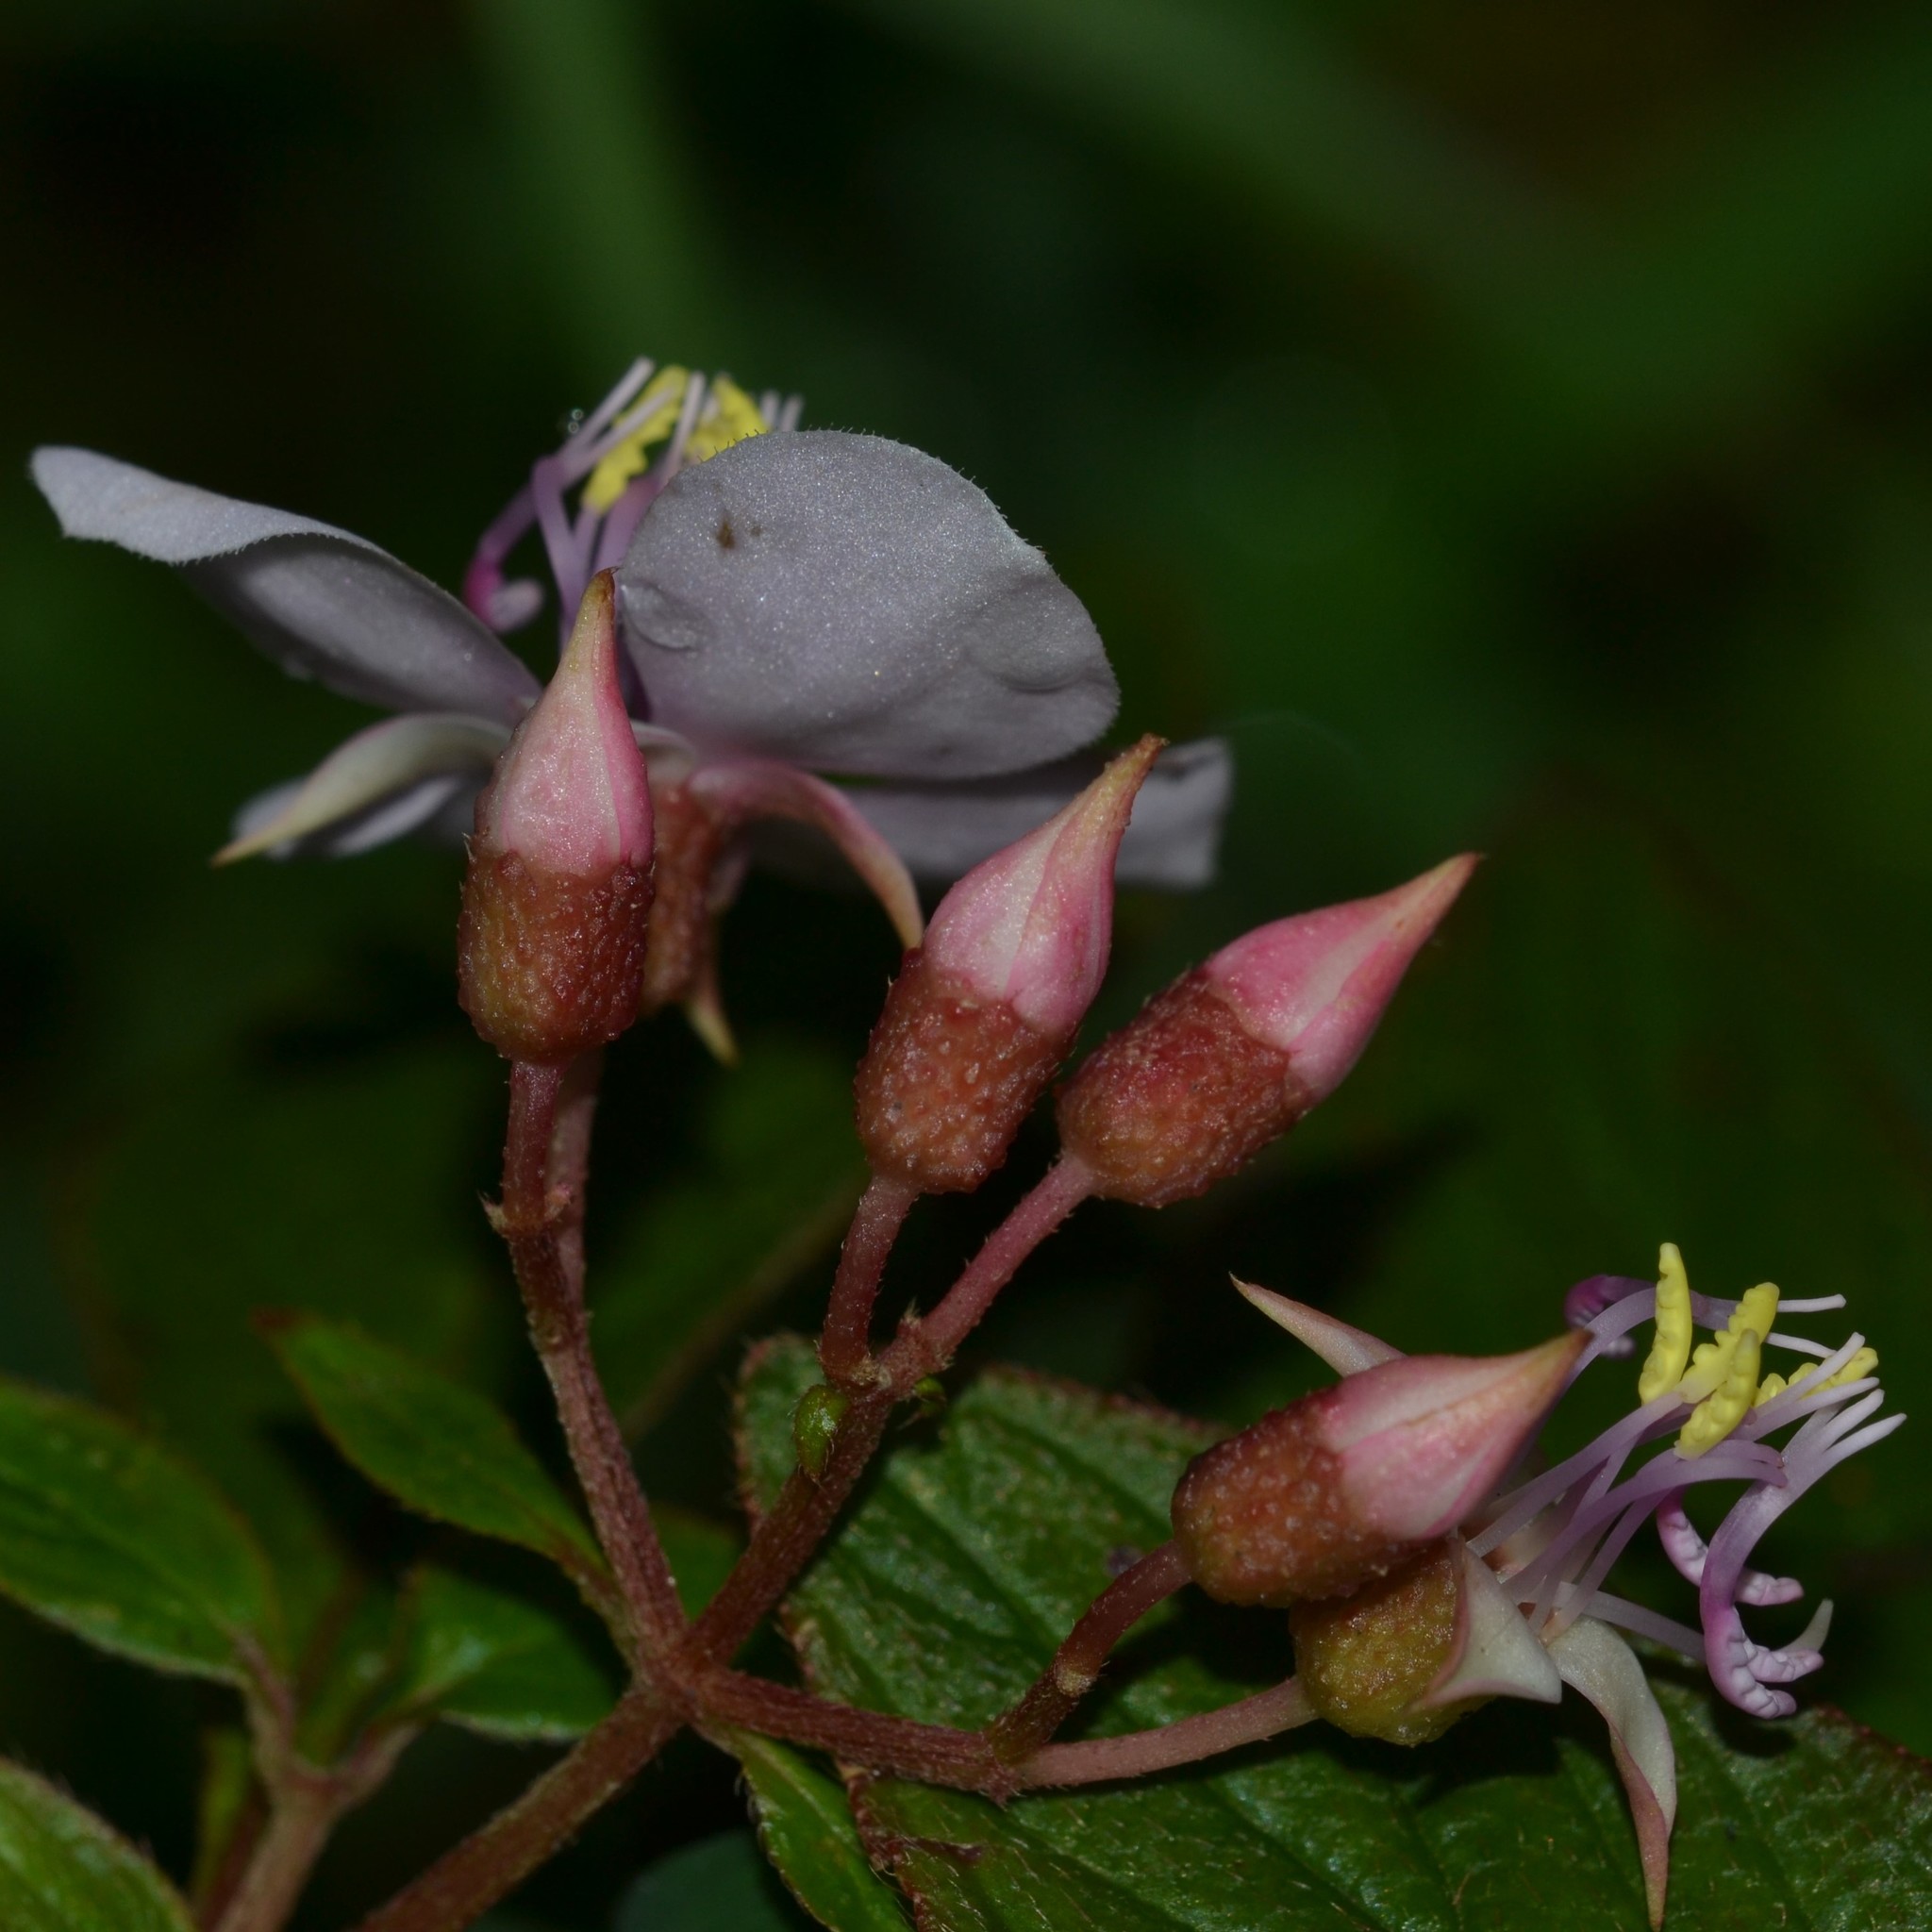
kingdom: Plantae
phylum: Tracheophyta
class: Magnoliopsida
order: Myrtales
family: Melastomataceae
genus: Heterocentron
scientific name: Heterocentron subtriplinervium
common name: Pearl flower
